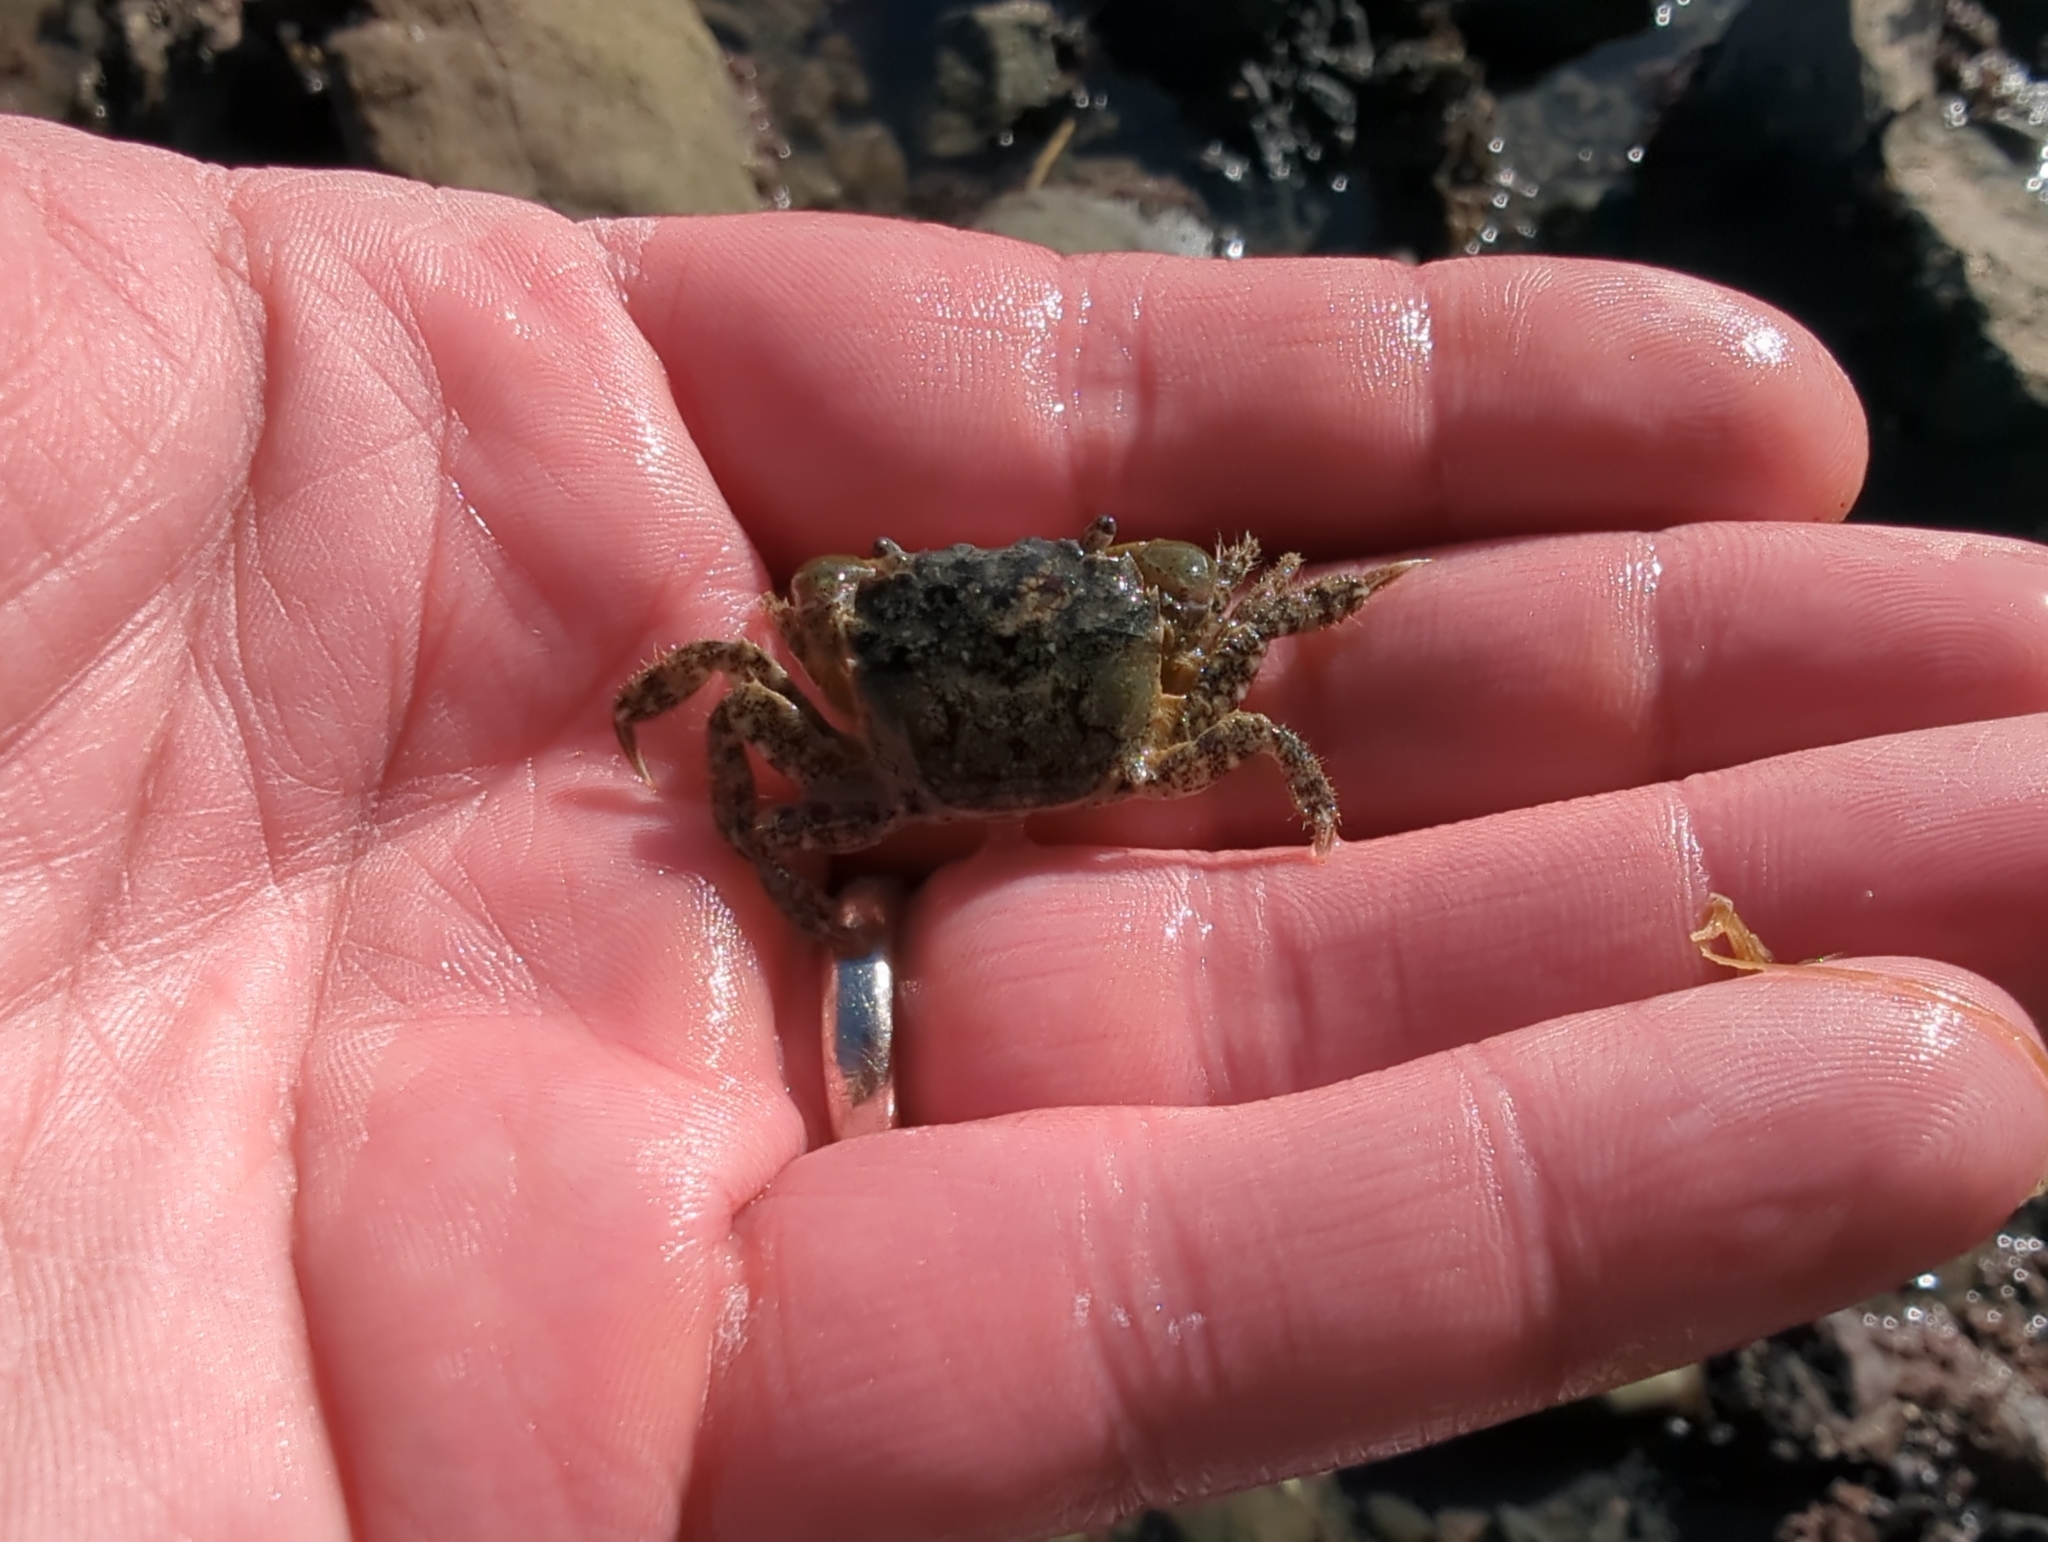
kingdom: Animalia
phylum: Arthropoda
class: Malacostraca
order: Decapoda
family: Varunidae
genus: Hemigrapsus
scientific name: Hemigrapsus oregonensis
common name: Yellow shore crab
